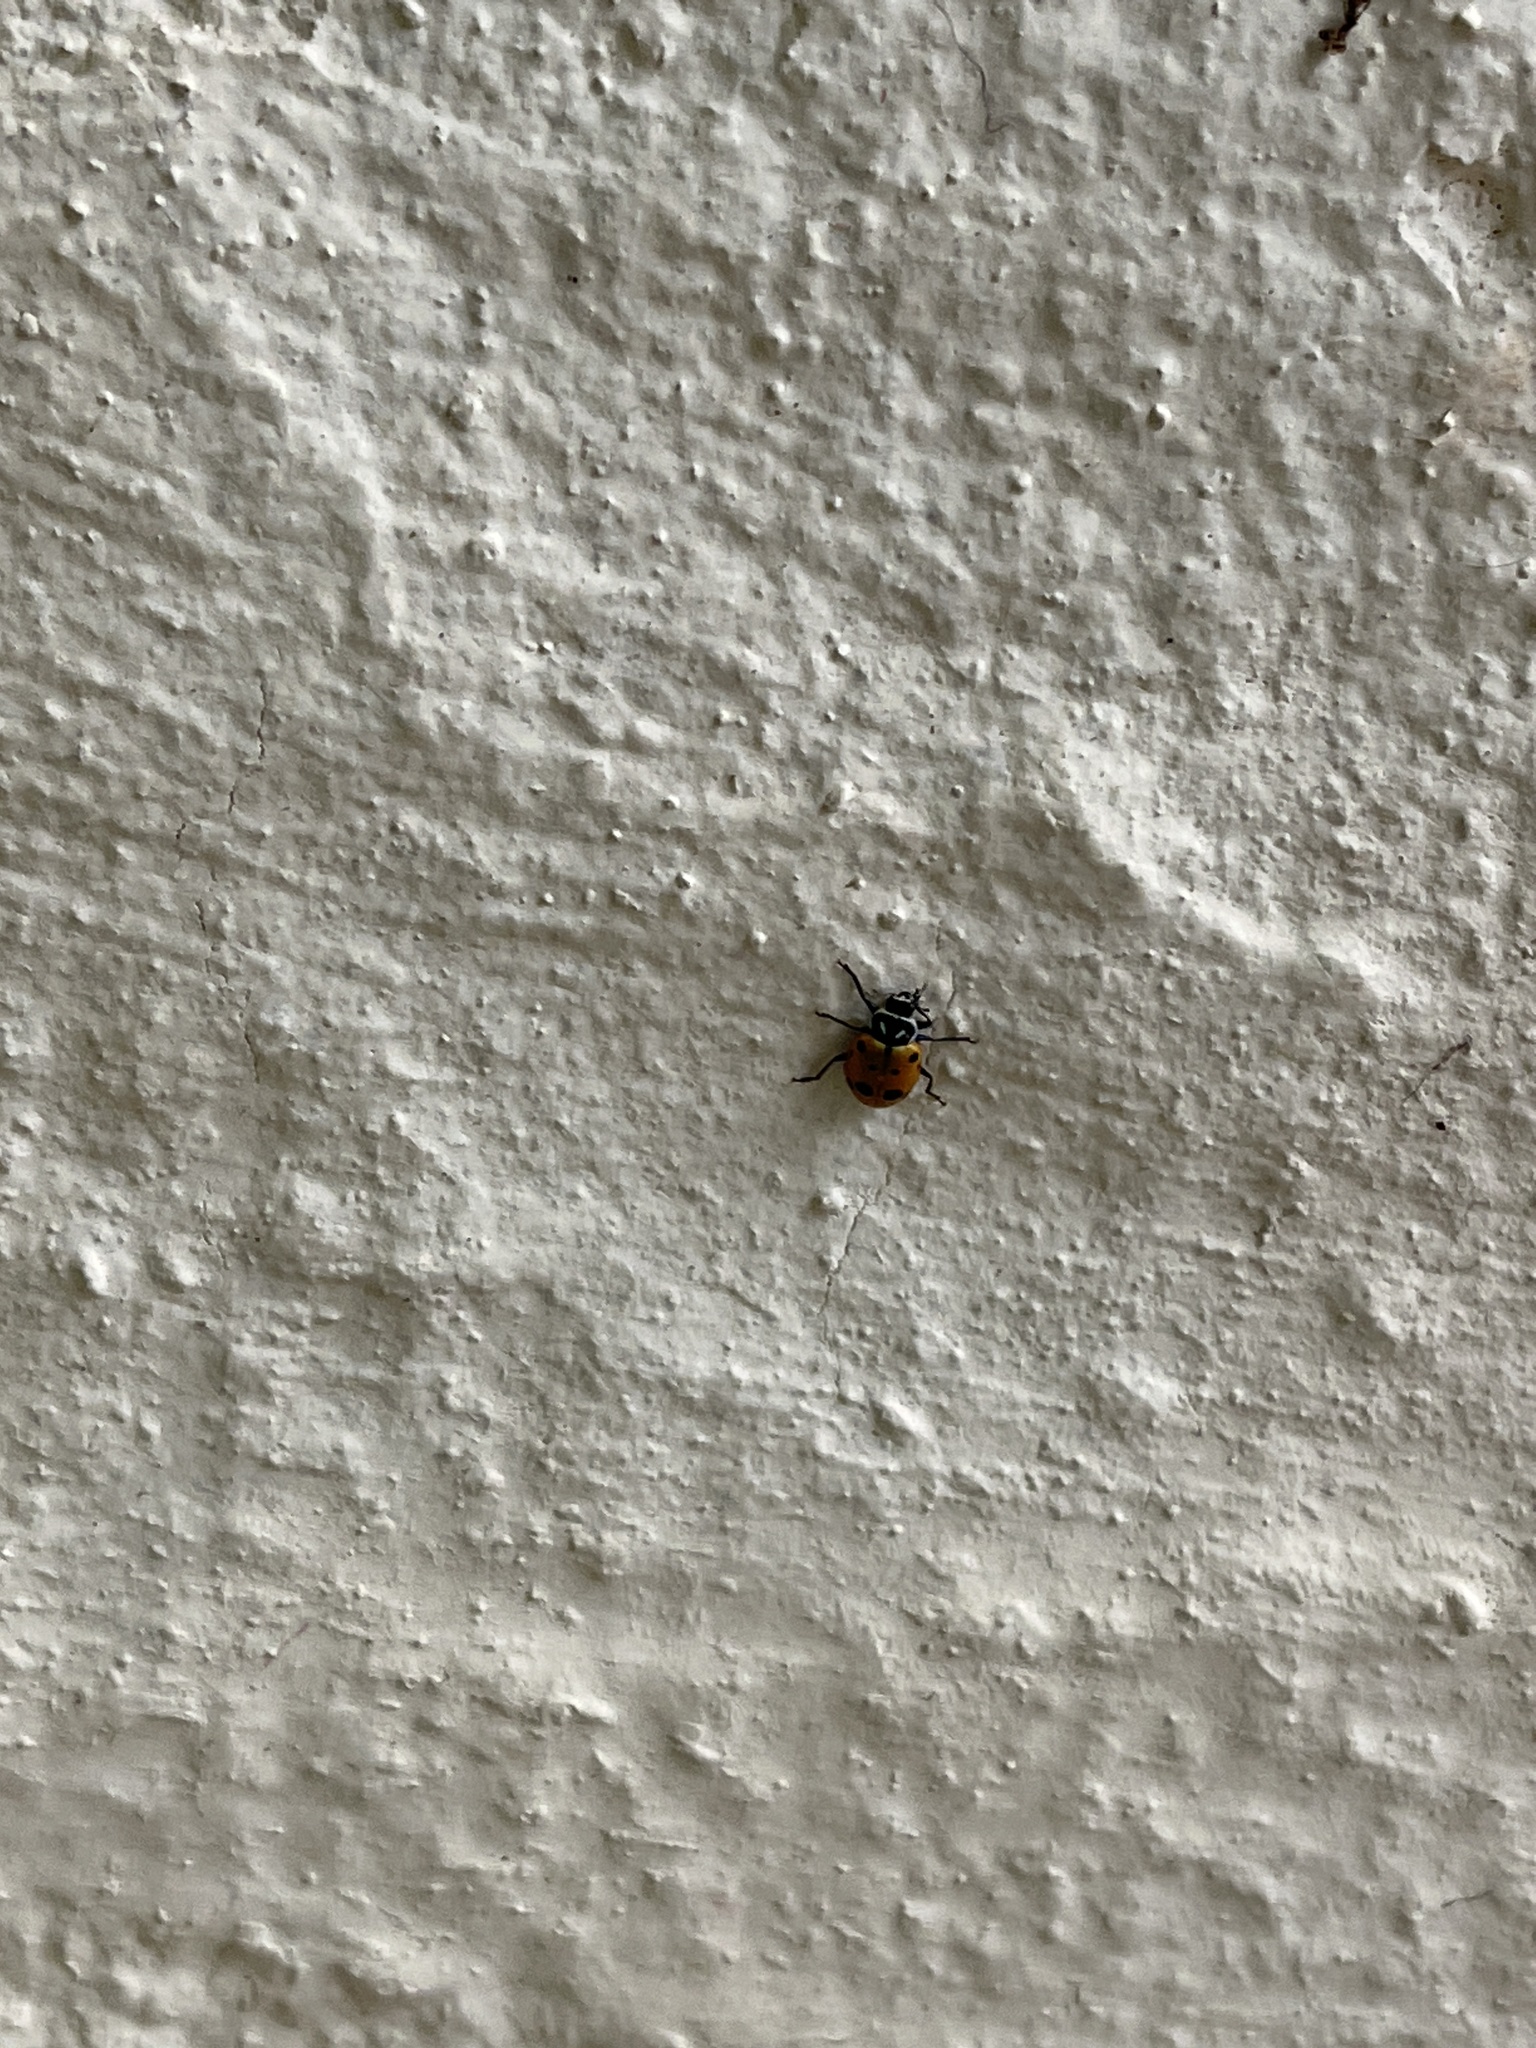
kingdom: Animalia
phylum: Arthropoda
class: Insecta
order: Coleoptera
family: Coccinellidae
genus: Hippodamia
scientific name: Hippodamia convergens
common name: Convergent lady beetle
